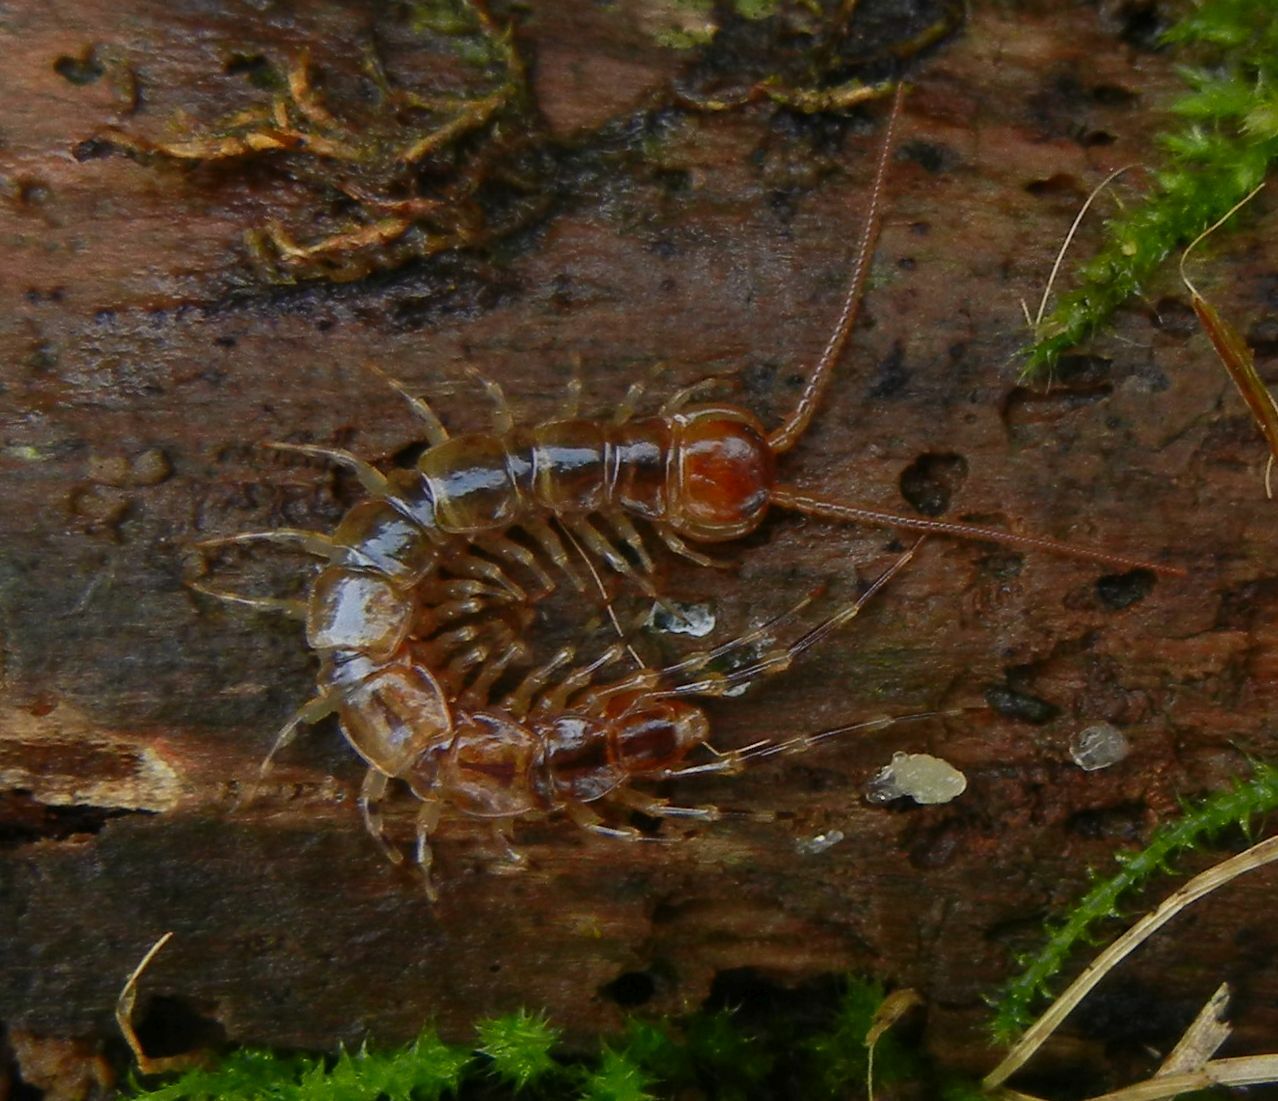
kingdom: Animalia
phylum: Arthropoda
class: Chilopoda
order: Lithobiomorpha
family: Lithobiidae
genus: Lithobius
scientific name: Lithobius variegatus
